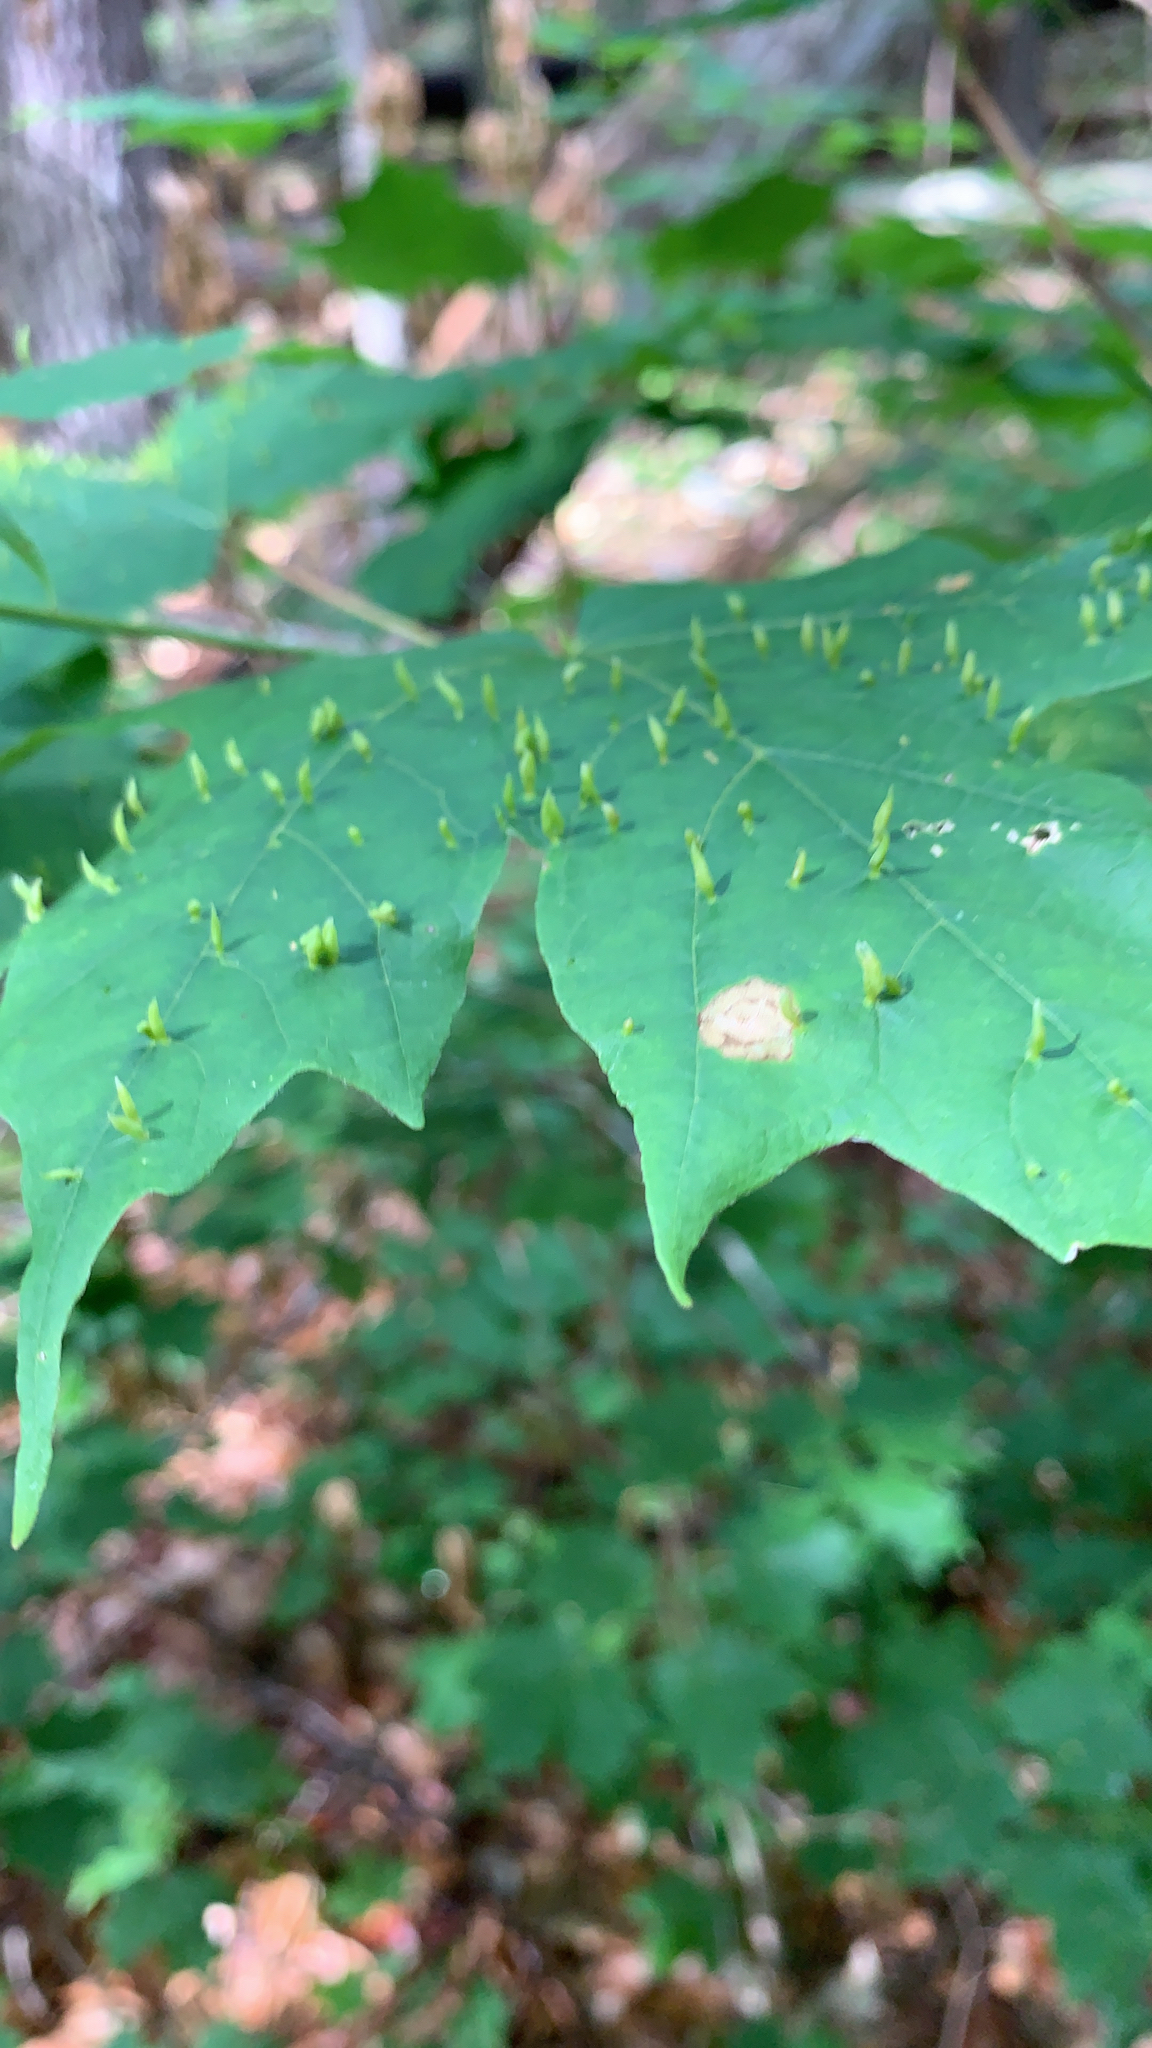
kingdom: Animalia
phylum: Arthropoda
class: Arachnida
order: Trombidiformes
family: Eriophyidae
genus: Vasates
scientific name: Vasates aceriscrumena
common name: Maple spindle gall mite
